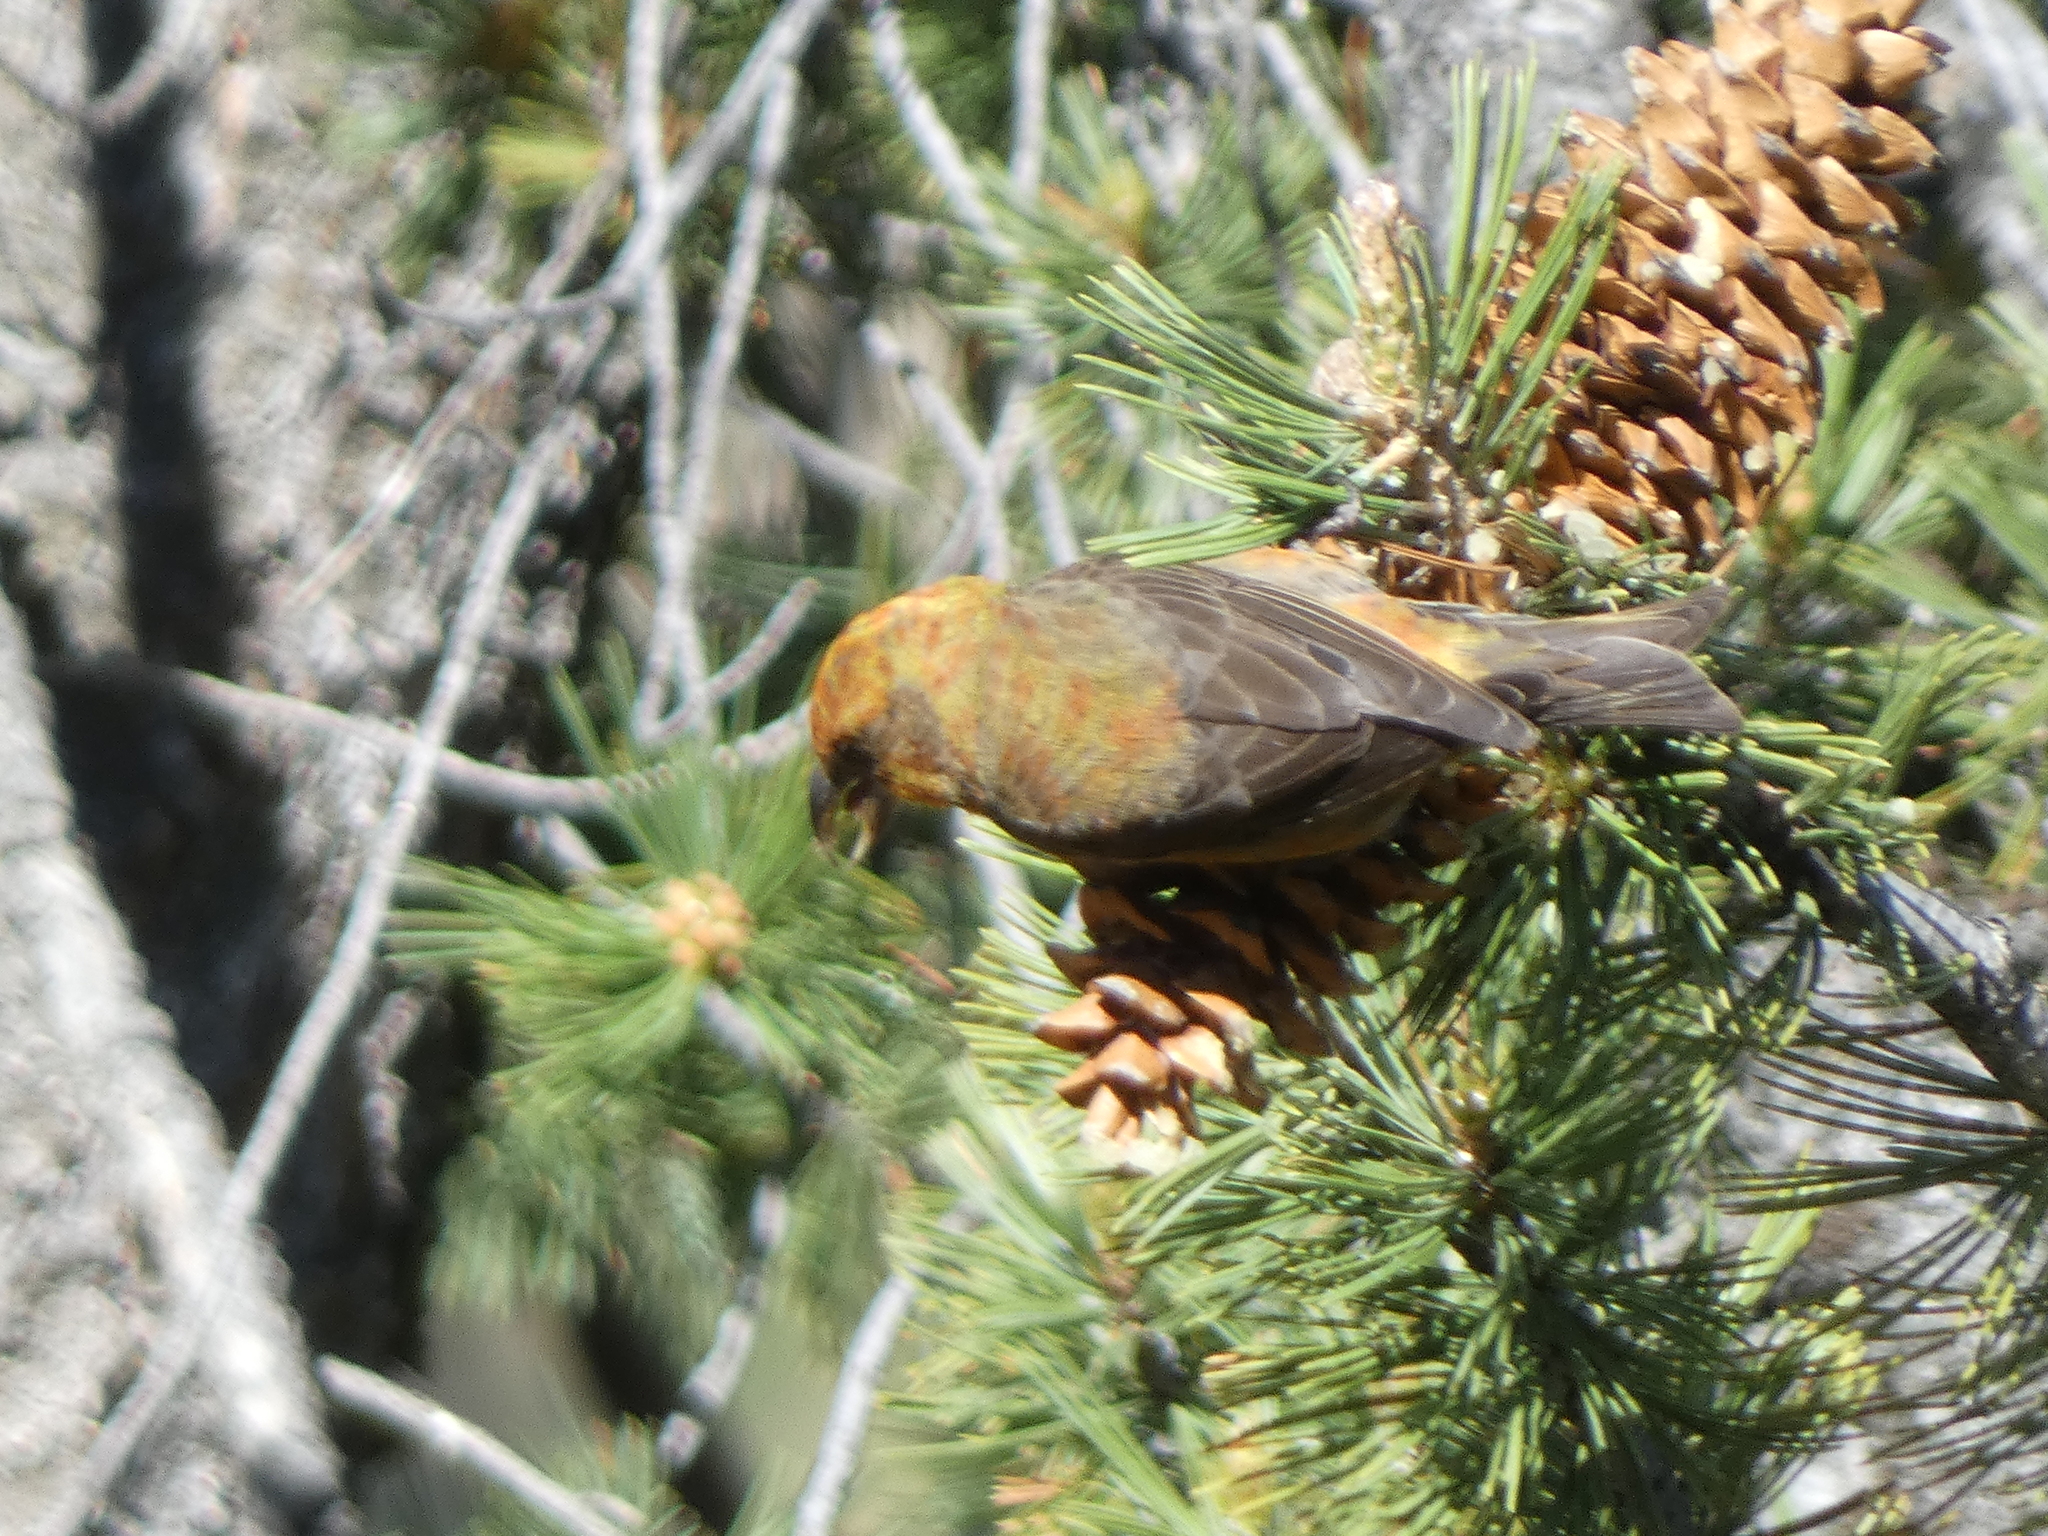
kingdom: Animalia
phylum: Chordata
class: Aves
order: Passeriformes
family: Fringillidae
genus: Loxia
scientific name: Loxia curvirostra
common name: Red crossbill
